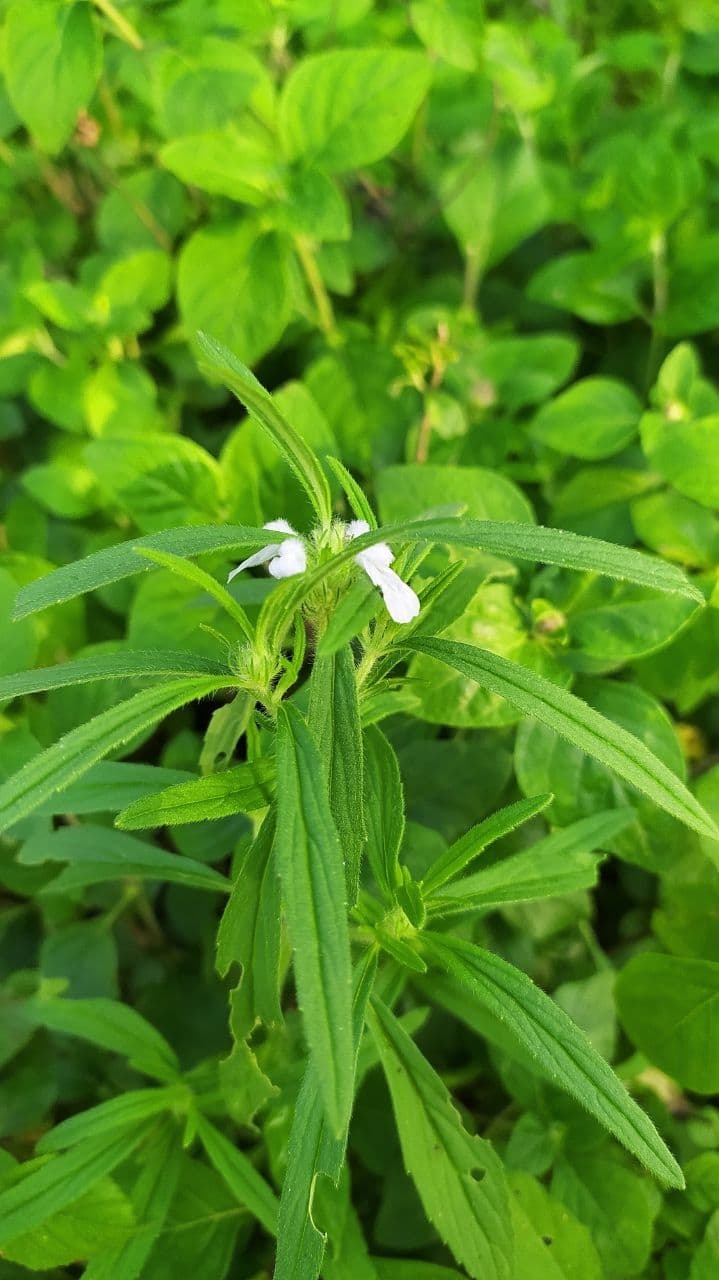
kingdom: Plantae
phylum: Tracheophyta
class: Magnoliopsida
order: Lamiales
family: Lamiaceae
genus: Leucas
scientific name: Leucas aspera
